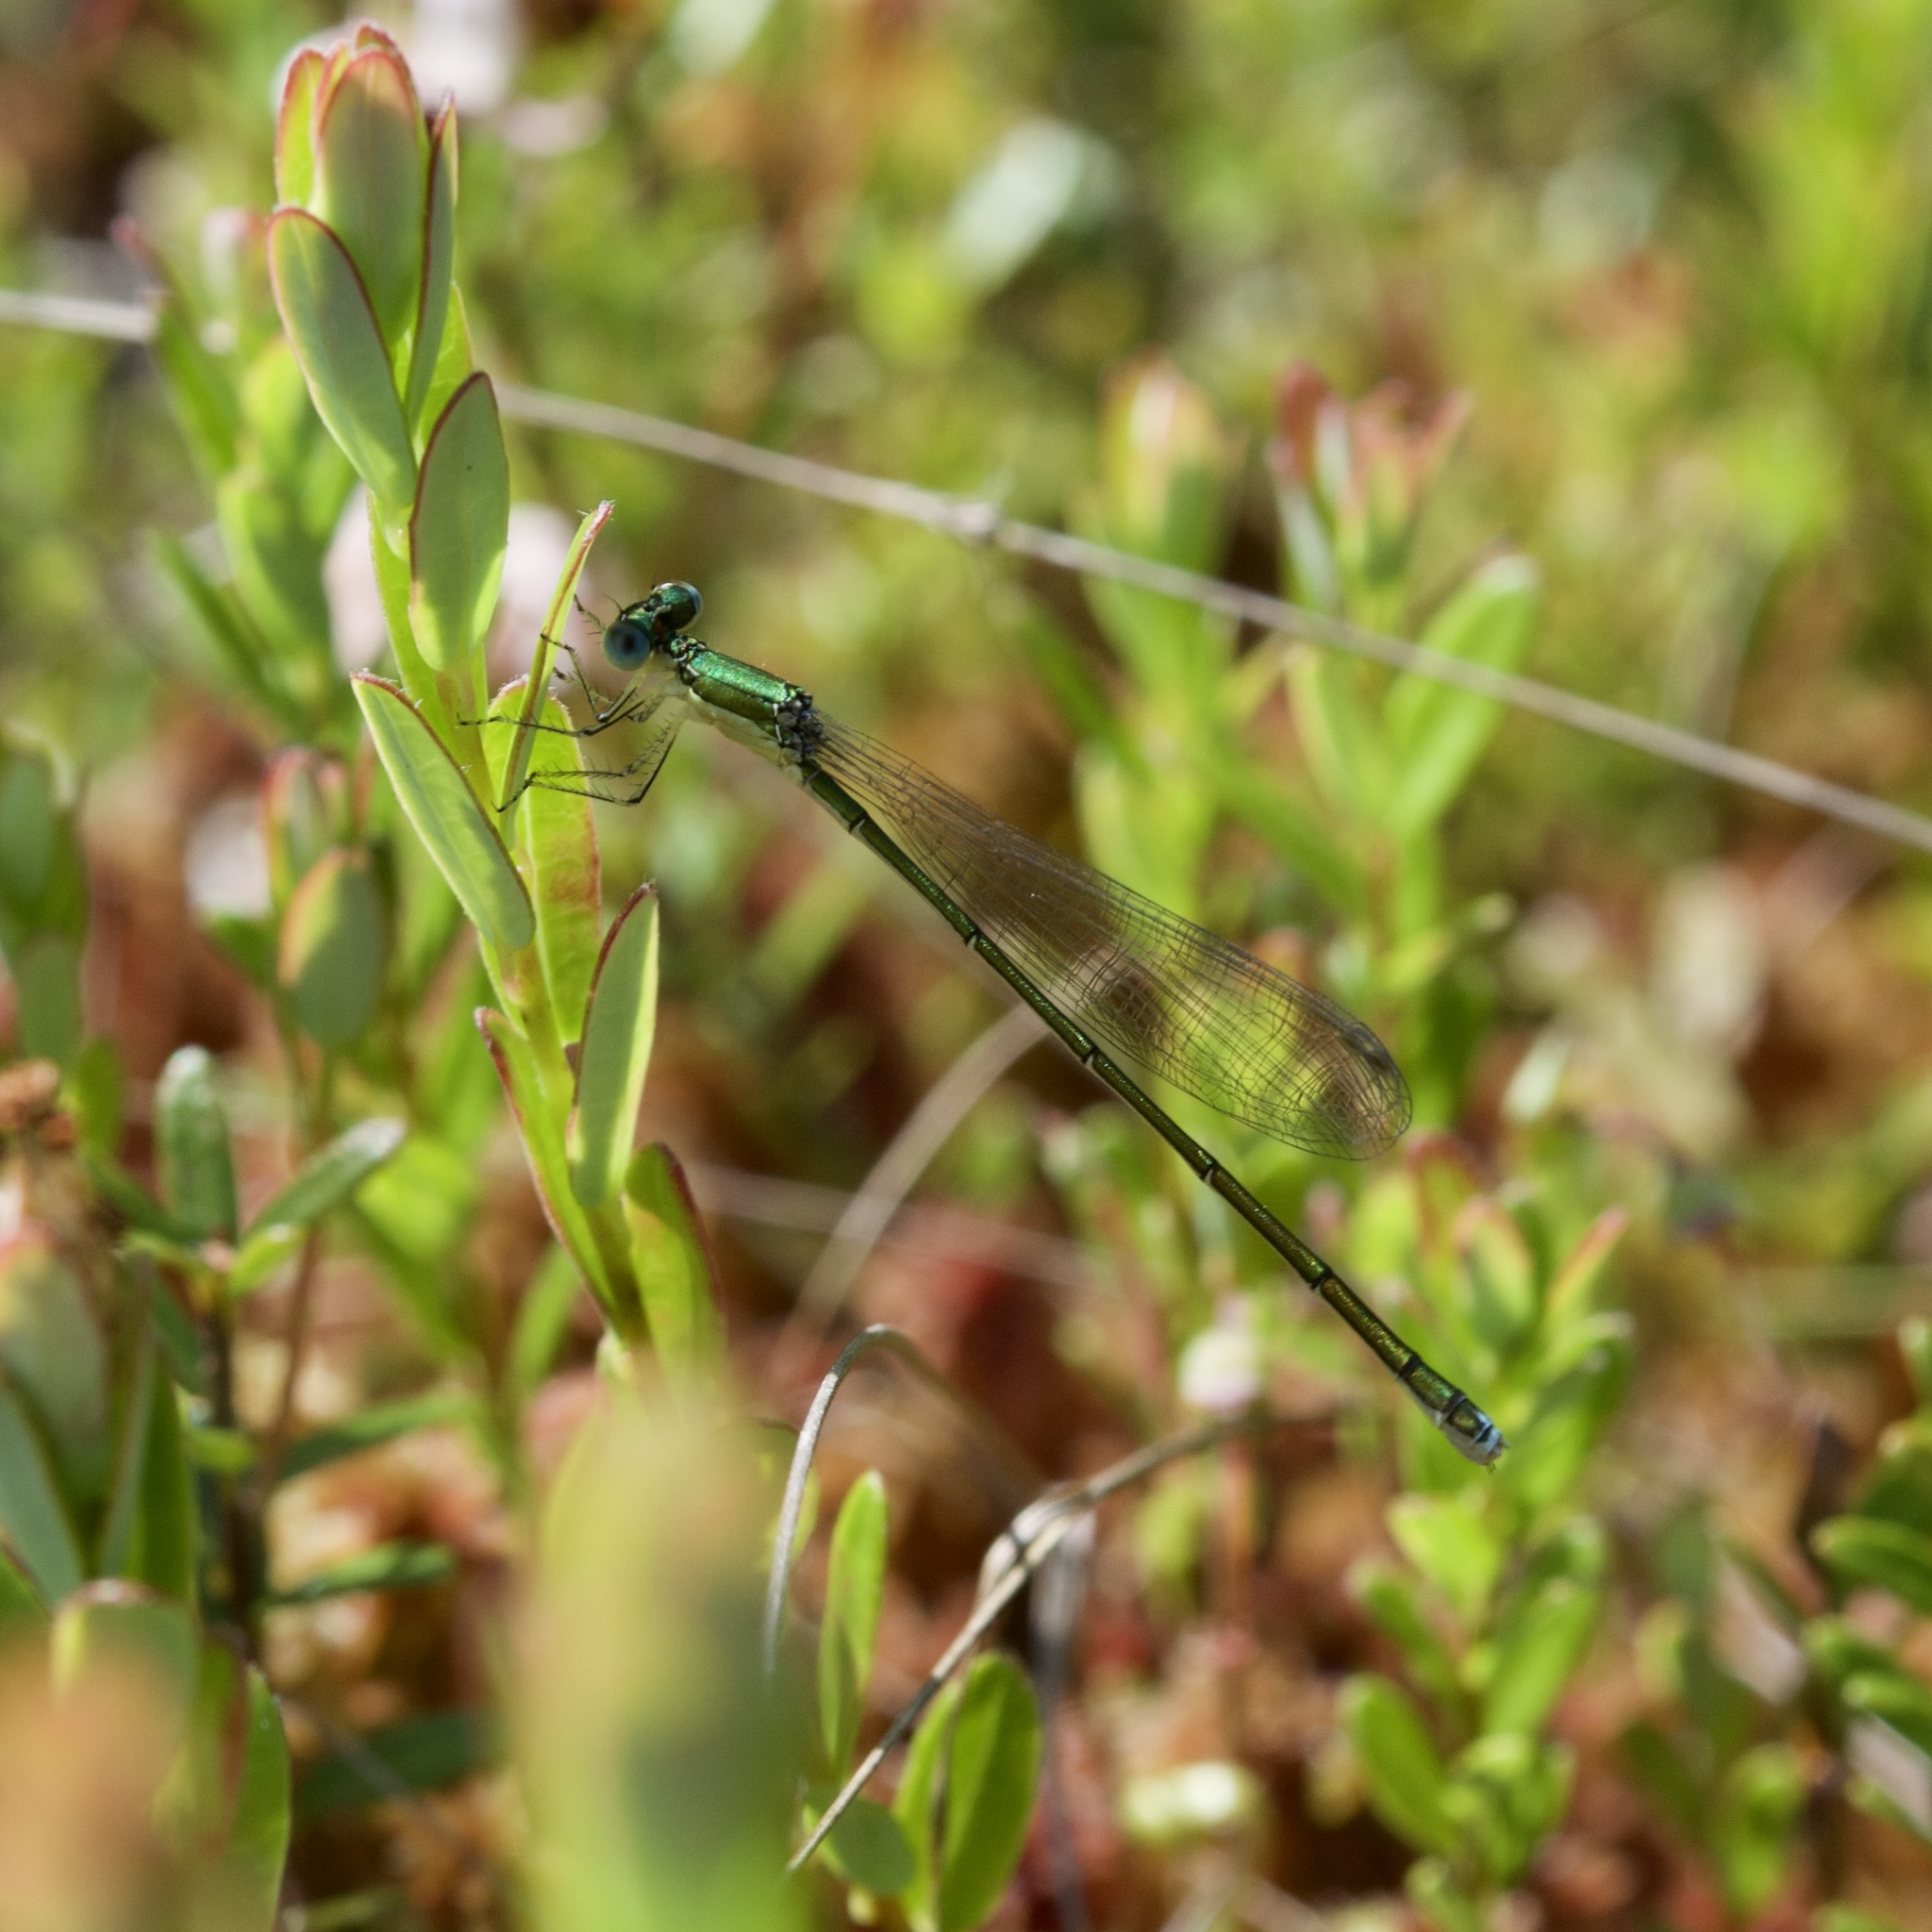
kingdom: Animalia
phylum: Arthropoda
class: Insecta
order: Odonata
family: Coenagrionidae
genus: Nehalennia
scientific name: Nehalennia irene
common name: Sedge sprite
